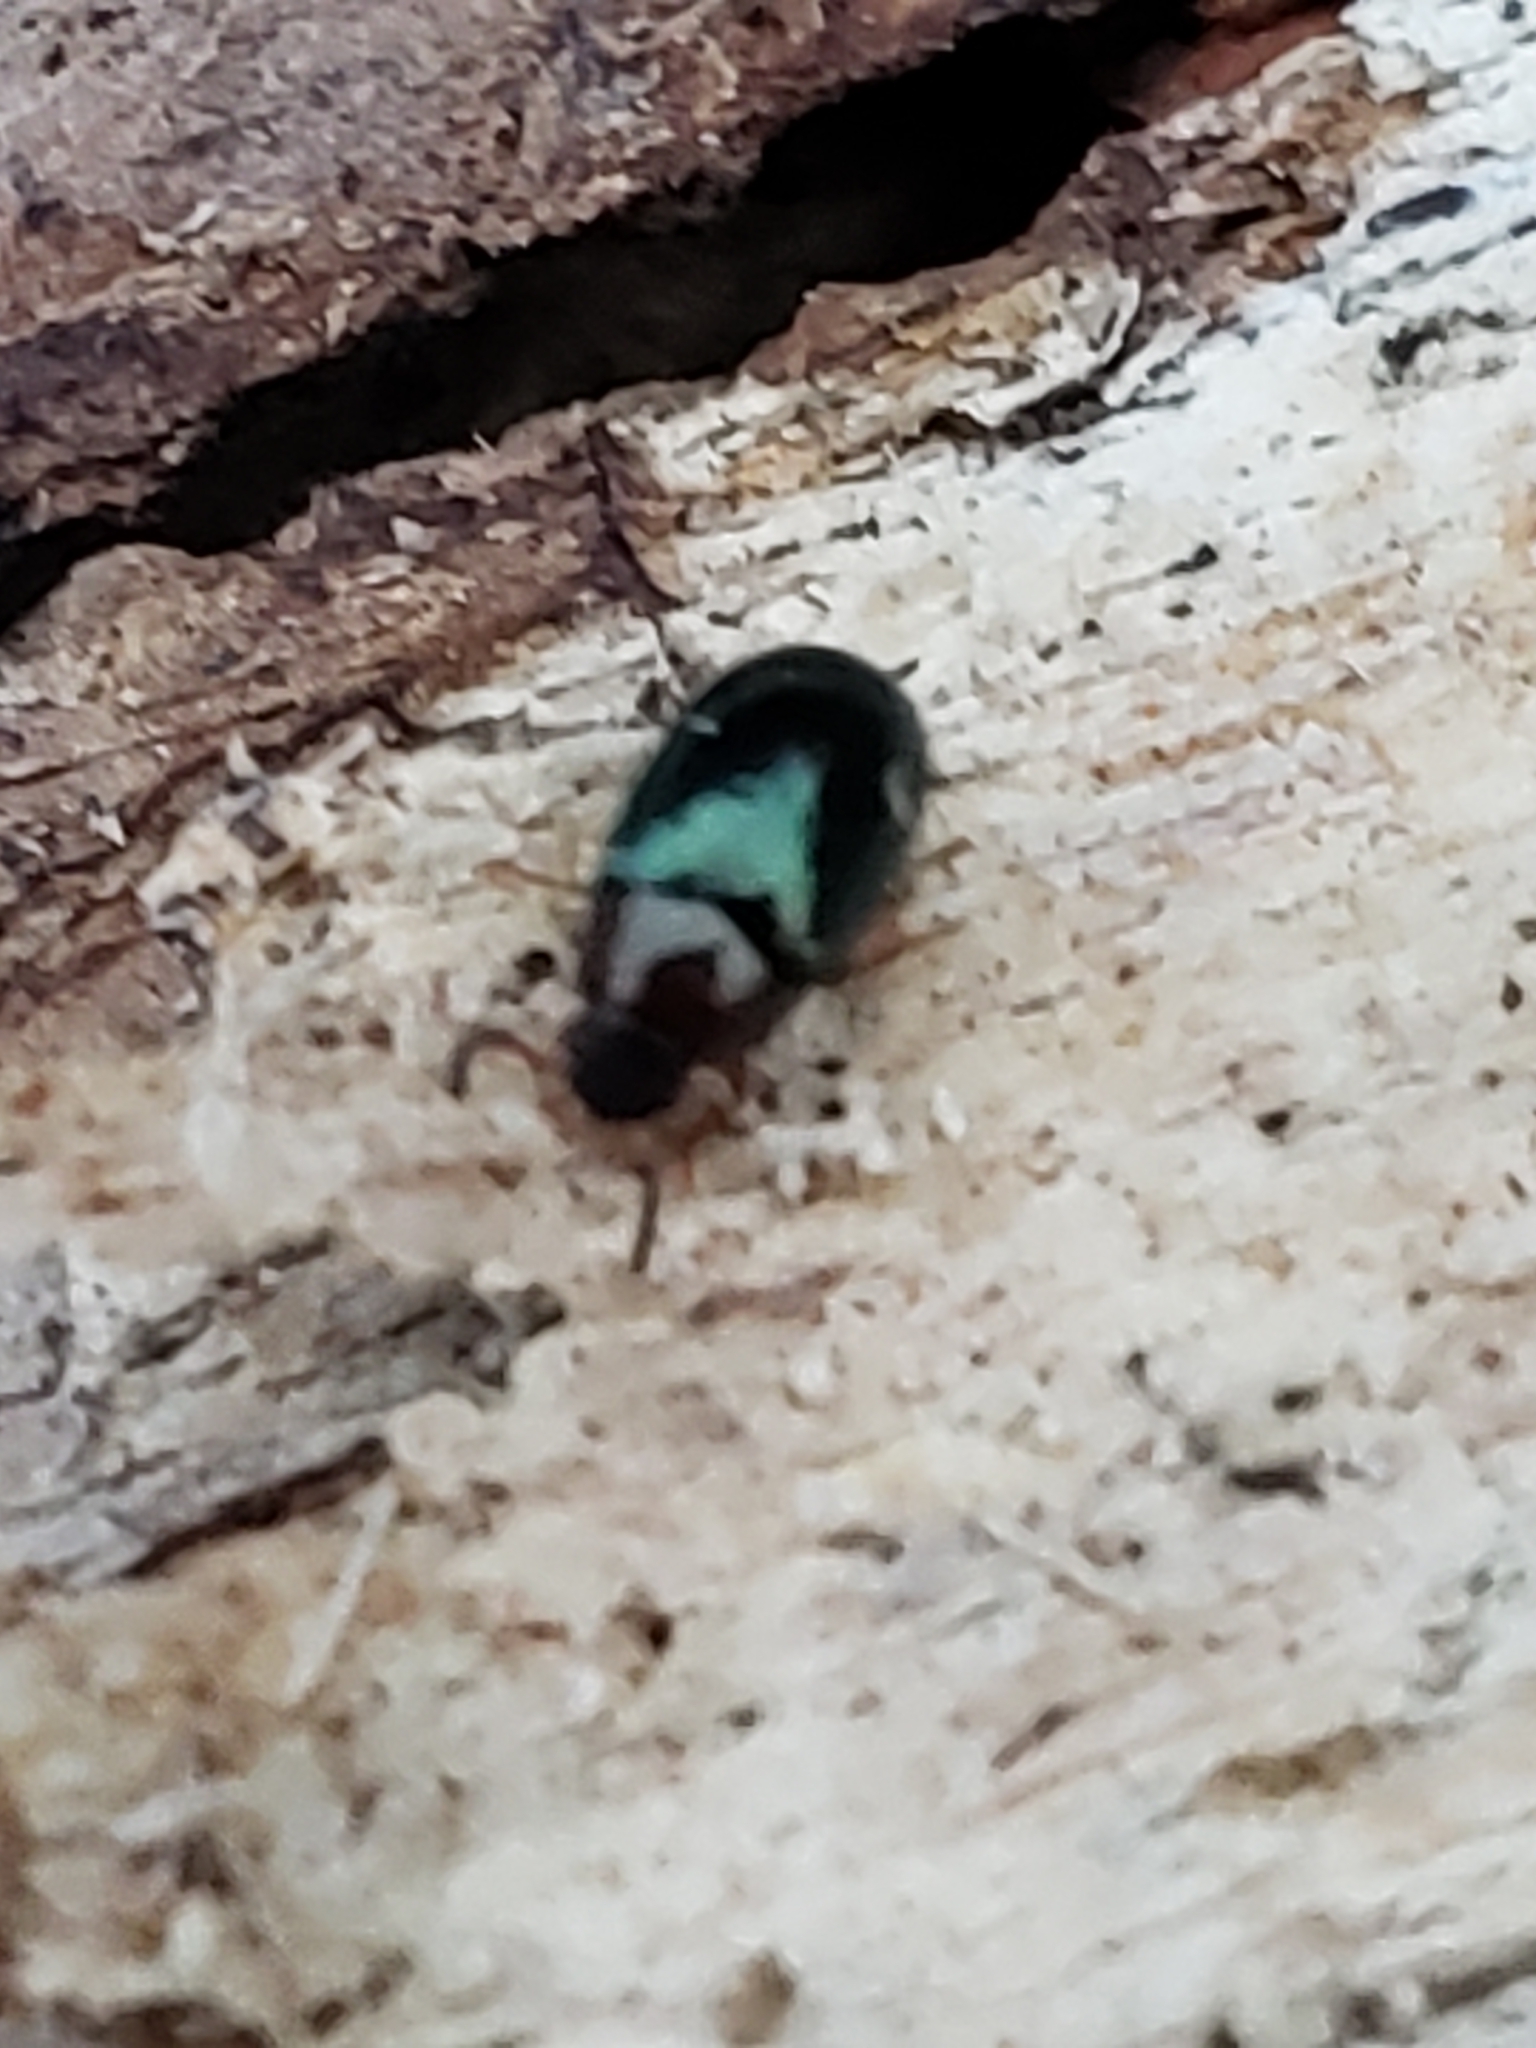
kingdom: Animalia
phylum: Arthropoda
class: Insecta
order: Coleoptera
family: Tenebrionidae
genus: Neomida
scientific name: Neomida bicornis
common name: Two-horned darkling beetle
